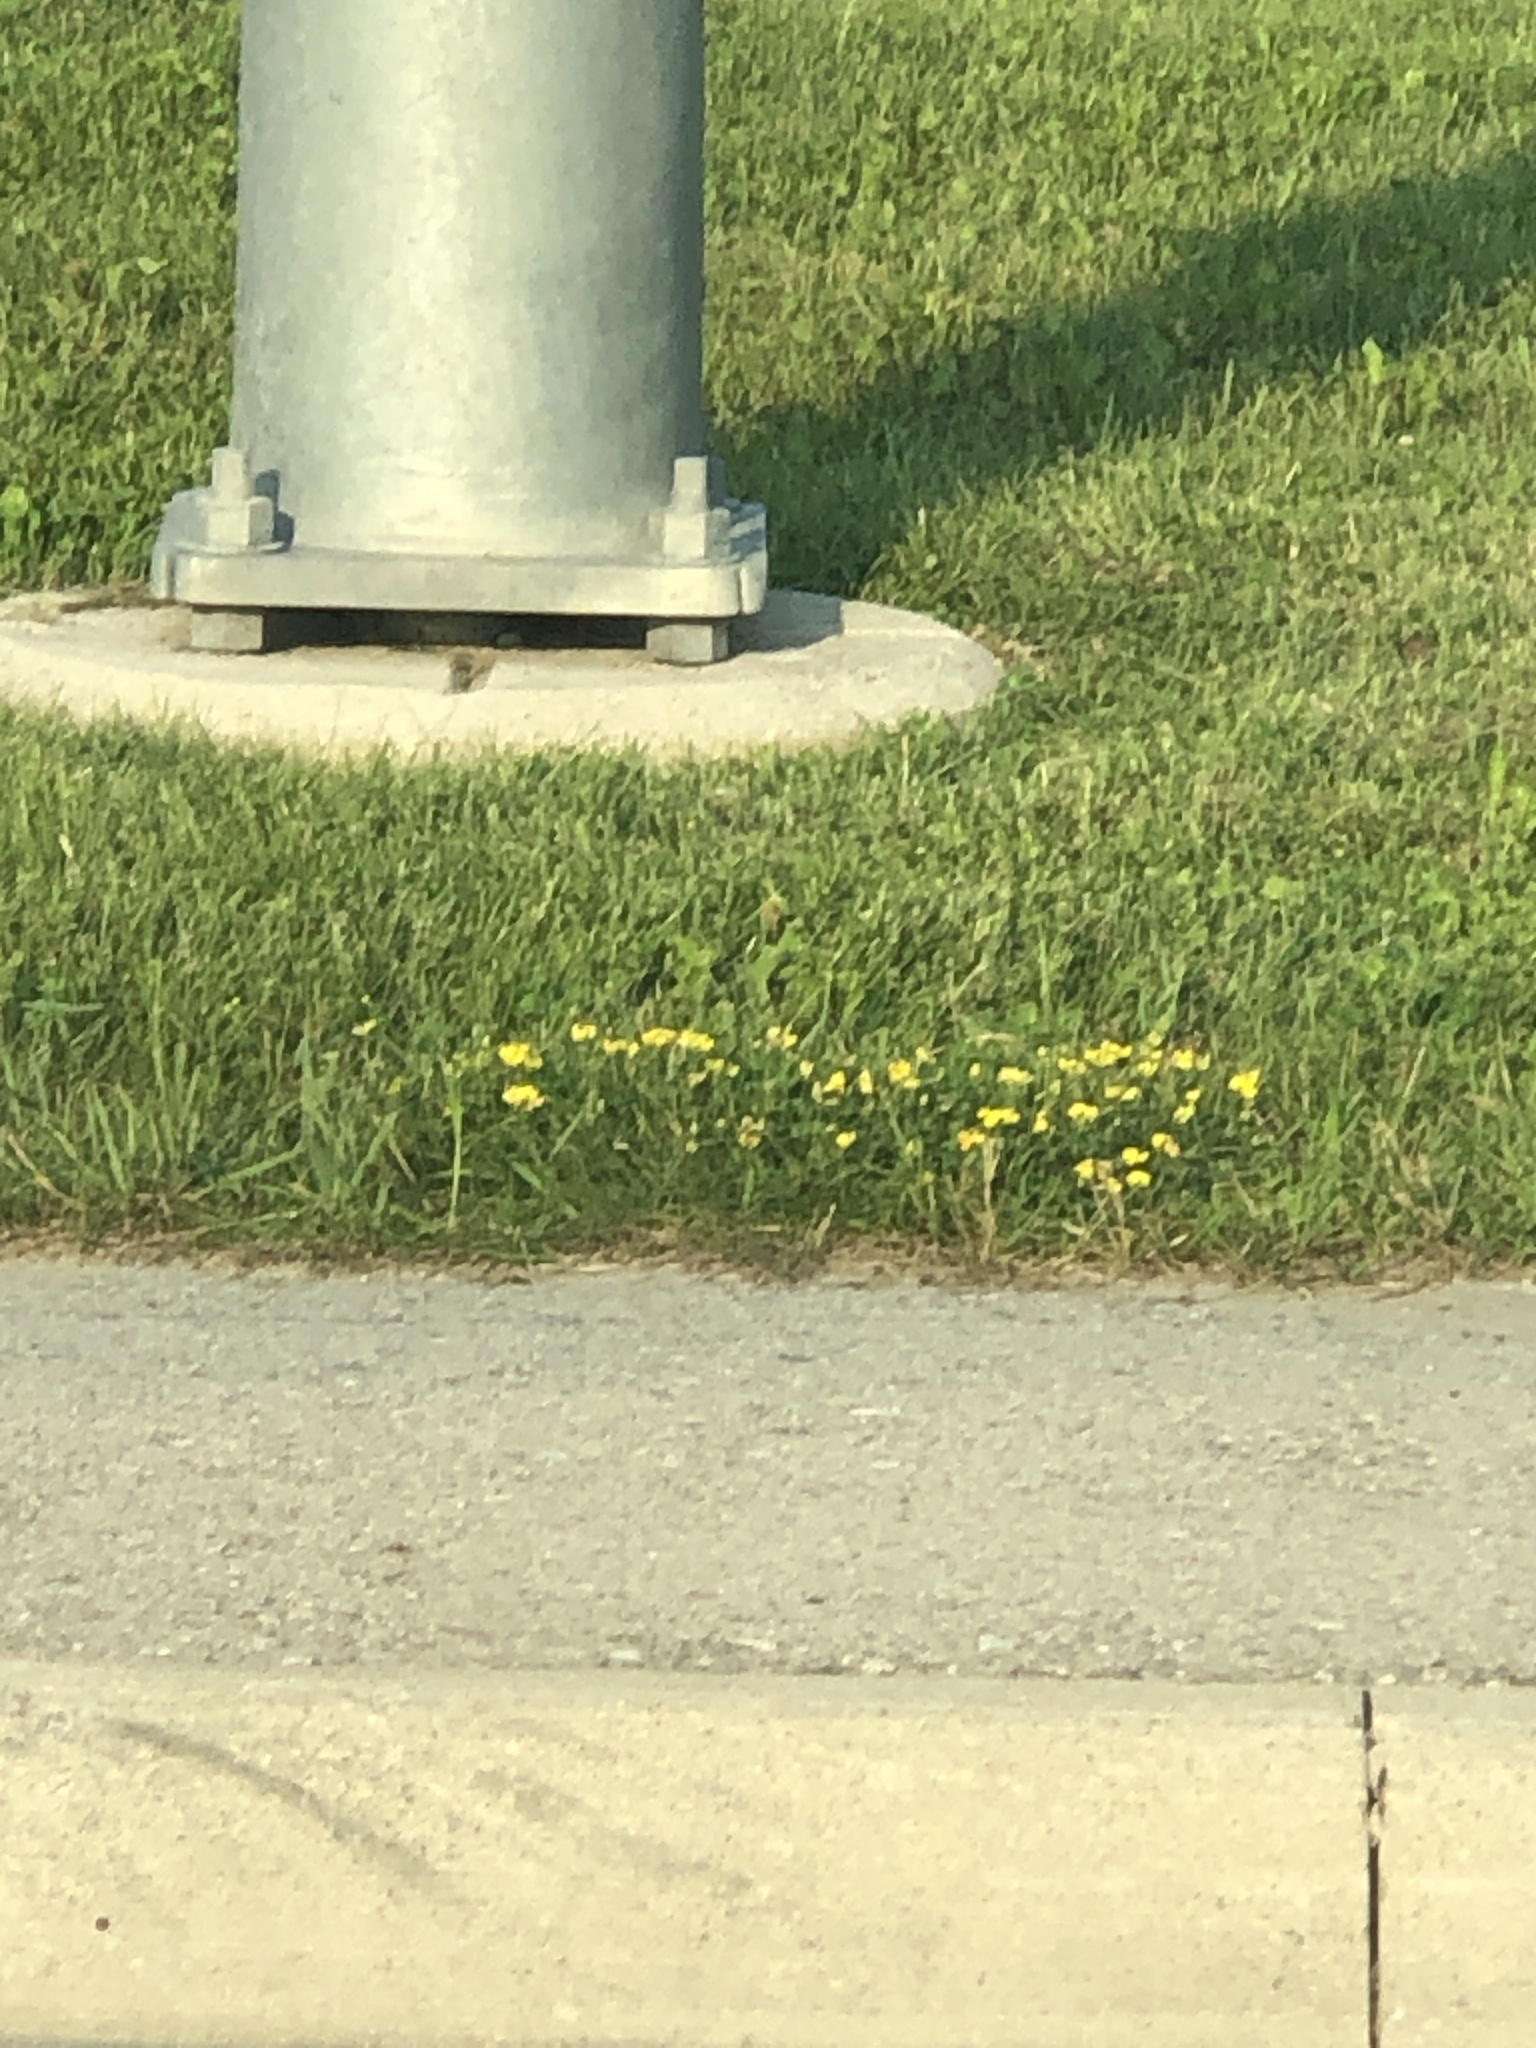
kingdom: Plantae
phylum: Tracheophyta
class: Magnoliopsida
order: Fabales
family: Fabaceae
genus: Lotus
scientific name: Lotus corniculatus
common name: Common bird's-foot-trefoil
